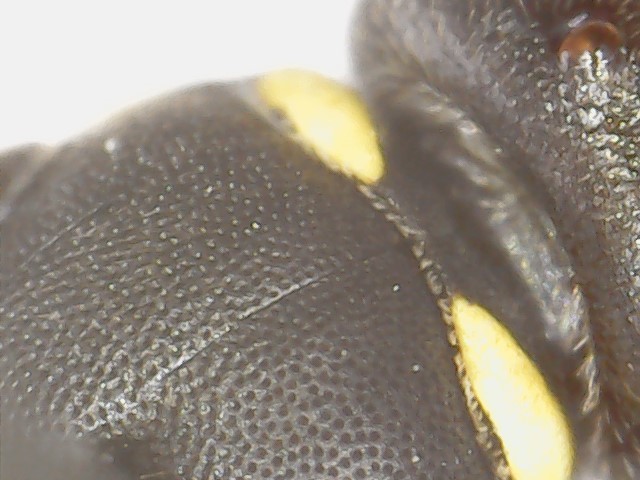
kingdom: Animalia
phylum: Arthropoda
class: Insecta
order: Hymenoptera
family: Colletidae
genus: Hylaeus
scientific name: Hylaeus modestus
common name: Yellow-faced bee
